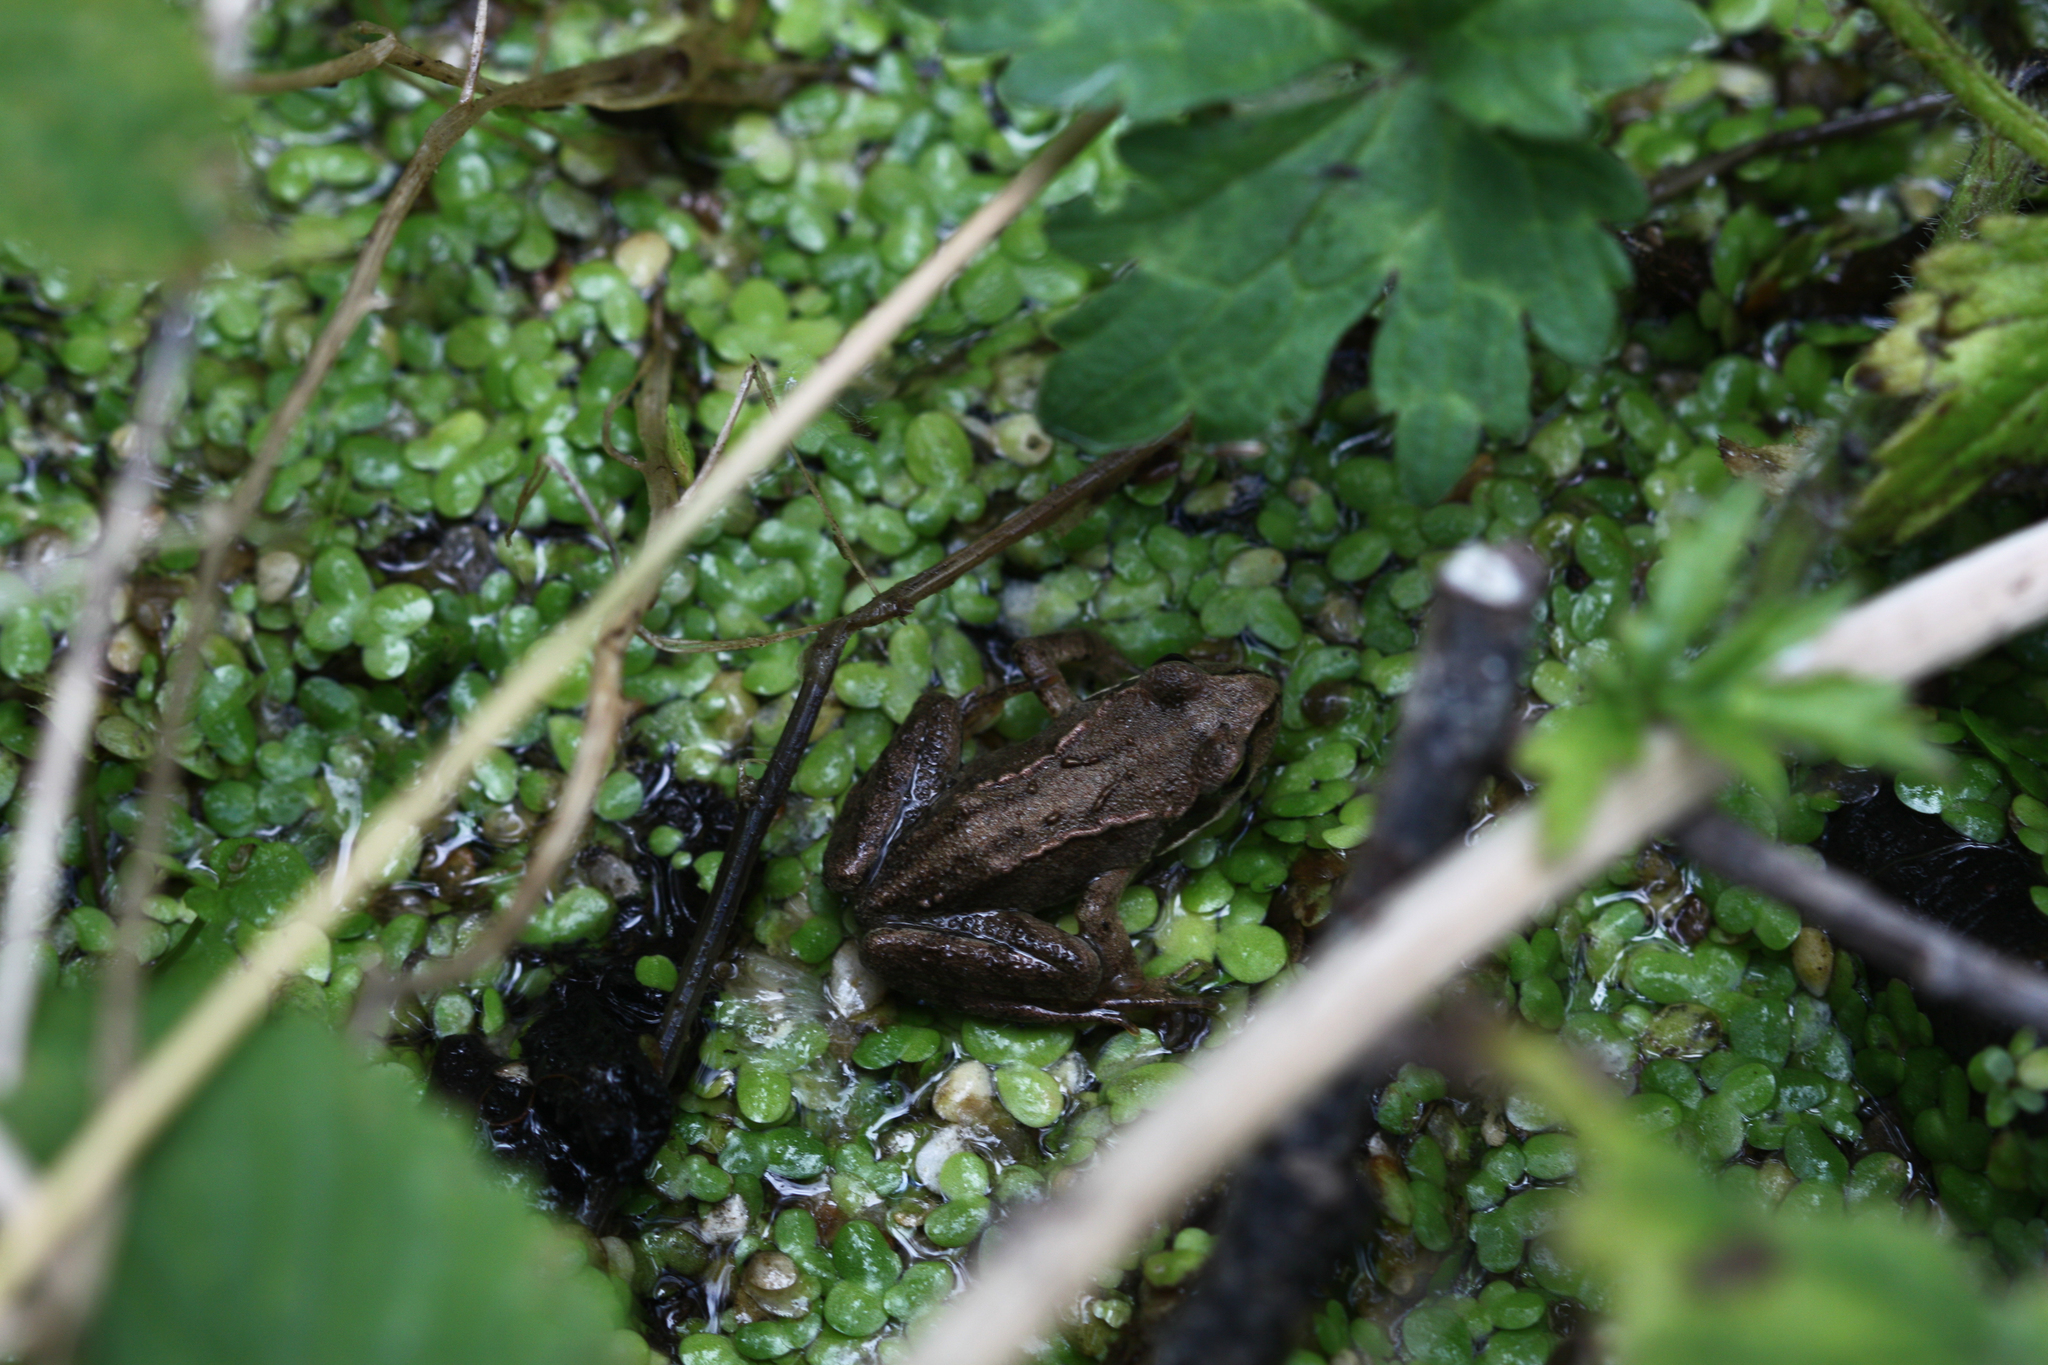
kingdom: Animalia
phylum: Chordata
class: Amphibia
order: Anura
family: Ranidae
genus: Rana
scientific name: Rana arvalis
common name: Moor frog
